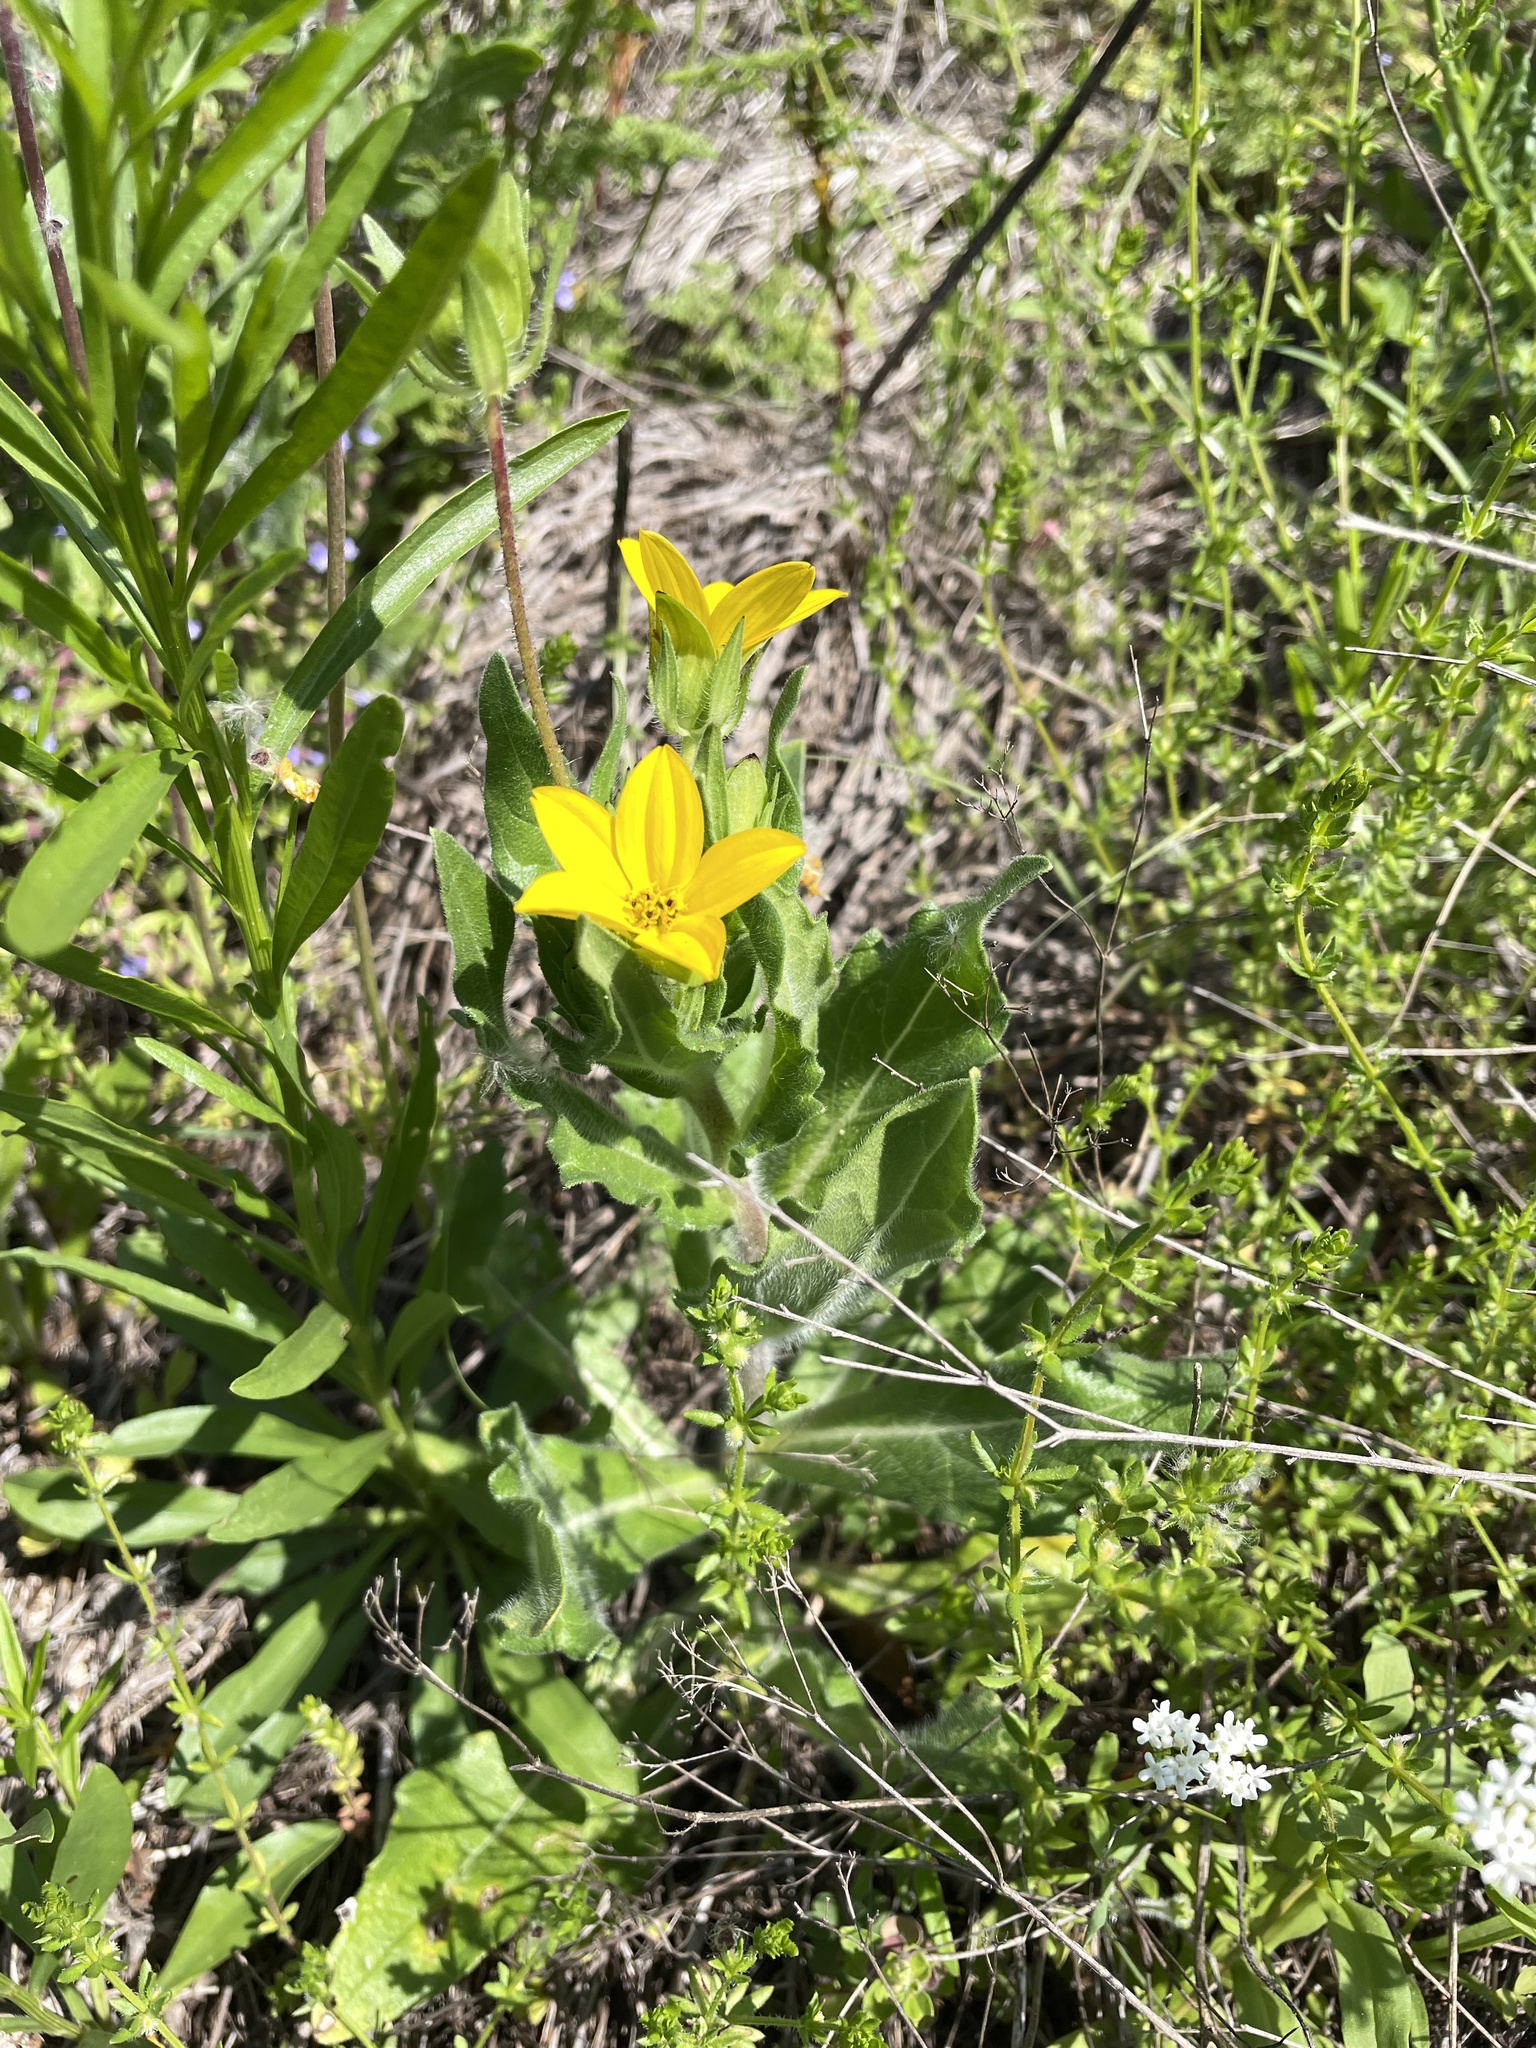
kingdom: Plantae
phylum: Tracheophyta
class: Magnoliopsida
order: Asterales
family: Asteraceae
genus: Lindheimera
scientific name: Lindheimera texana
